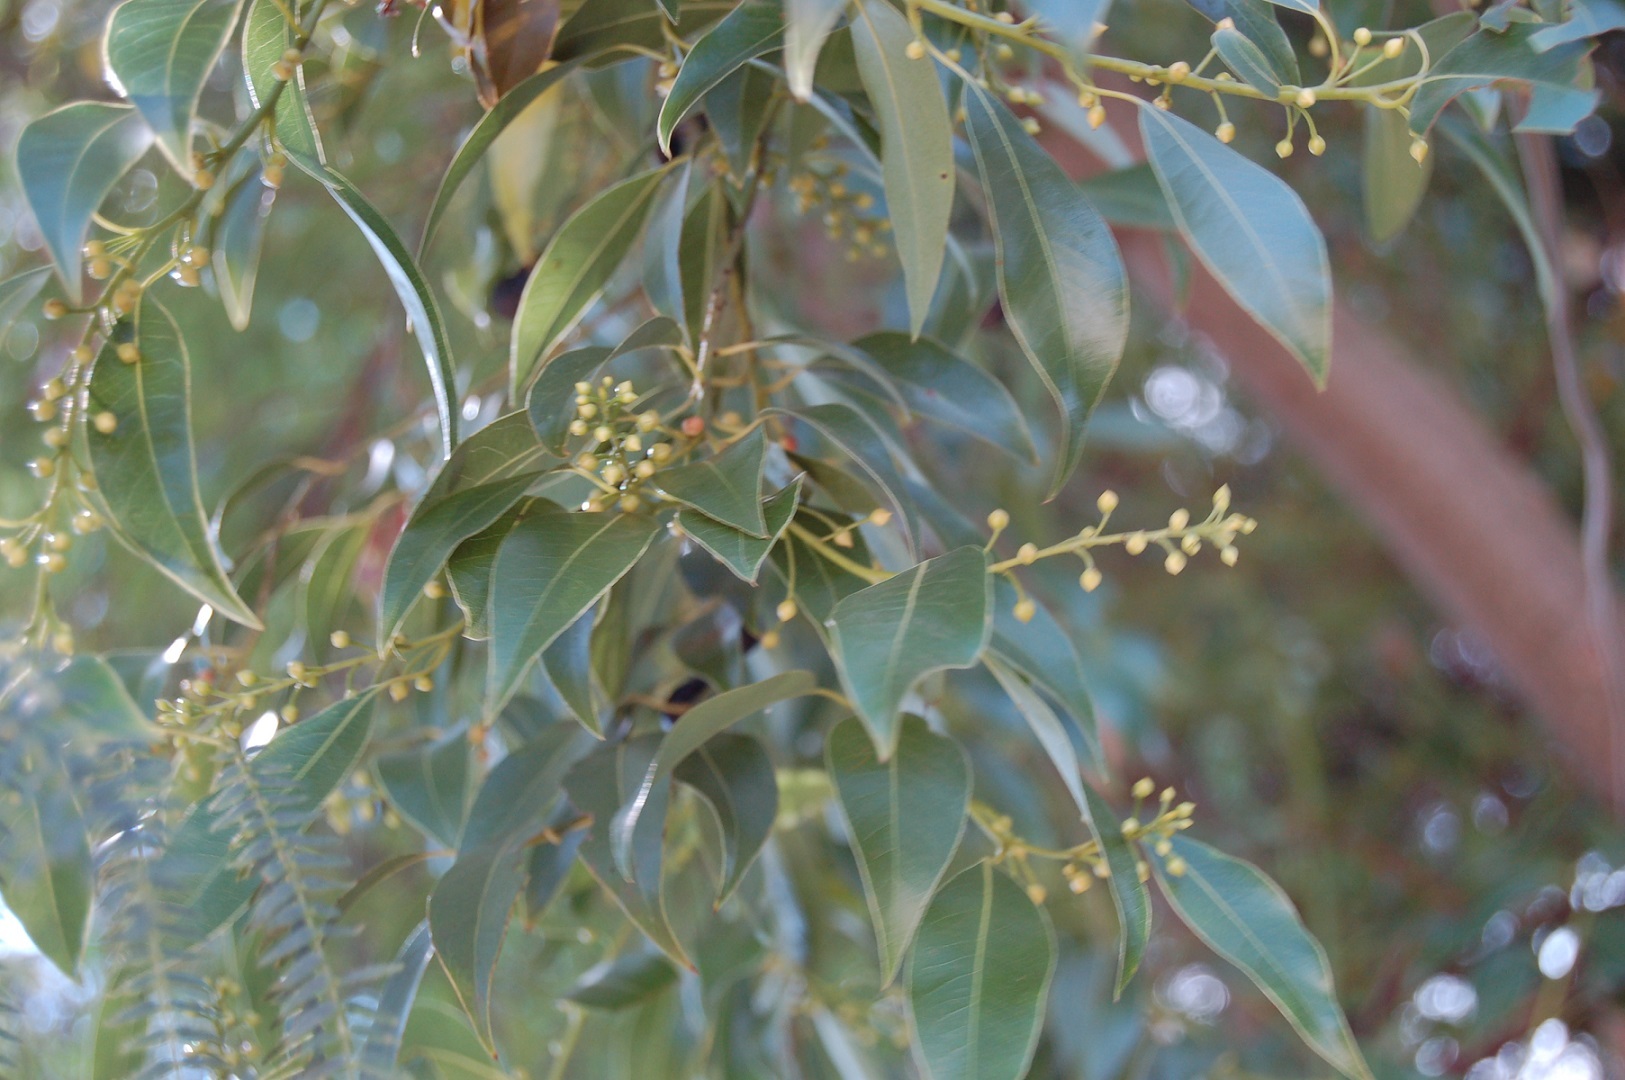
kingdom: Plantae
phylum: Tracheophyta
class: Magnoliopsida
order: Laurales
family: Lauraceae
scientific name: Lauraceae
